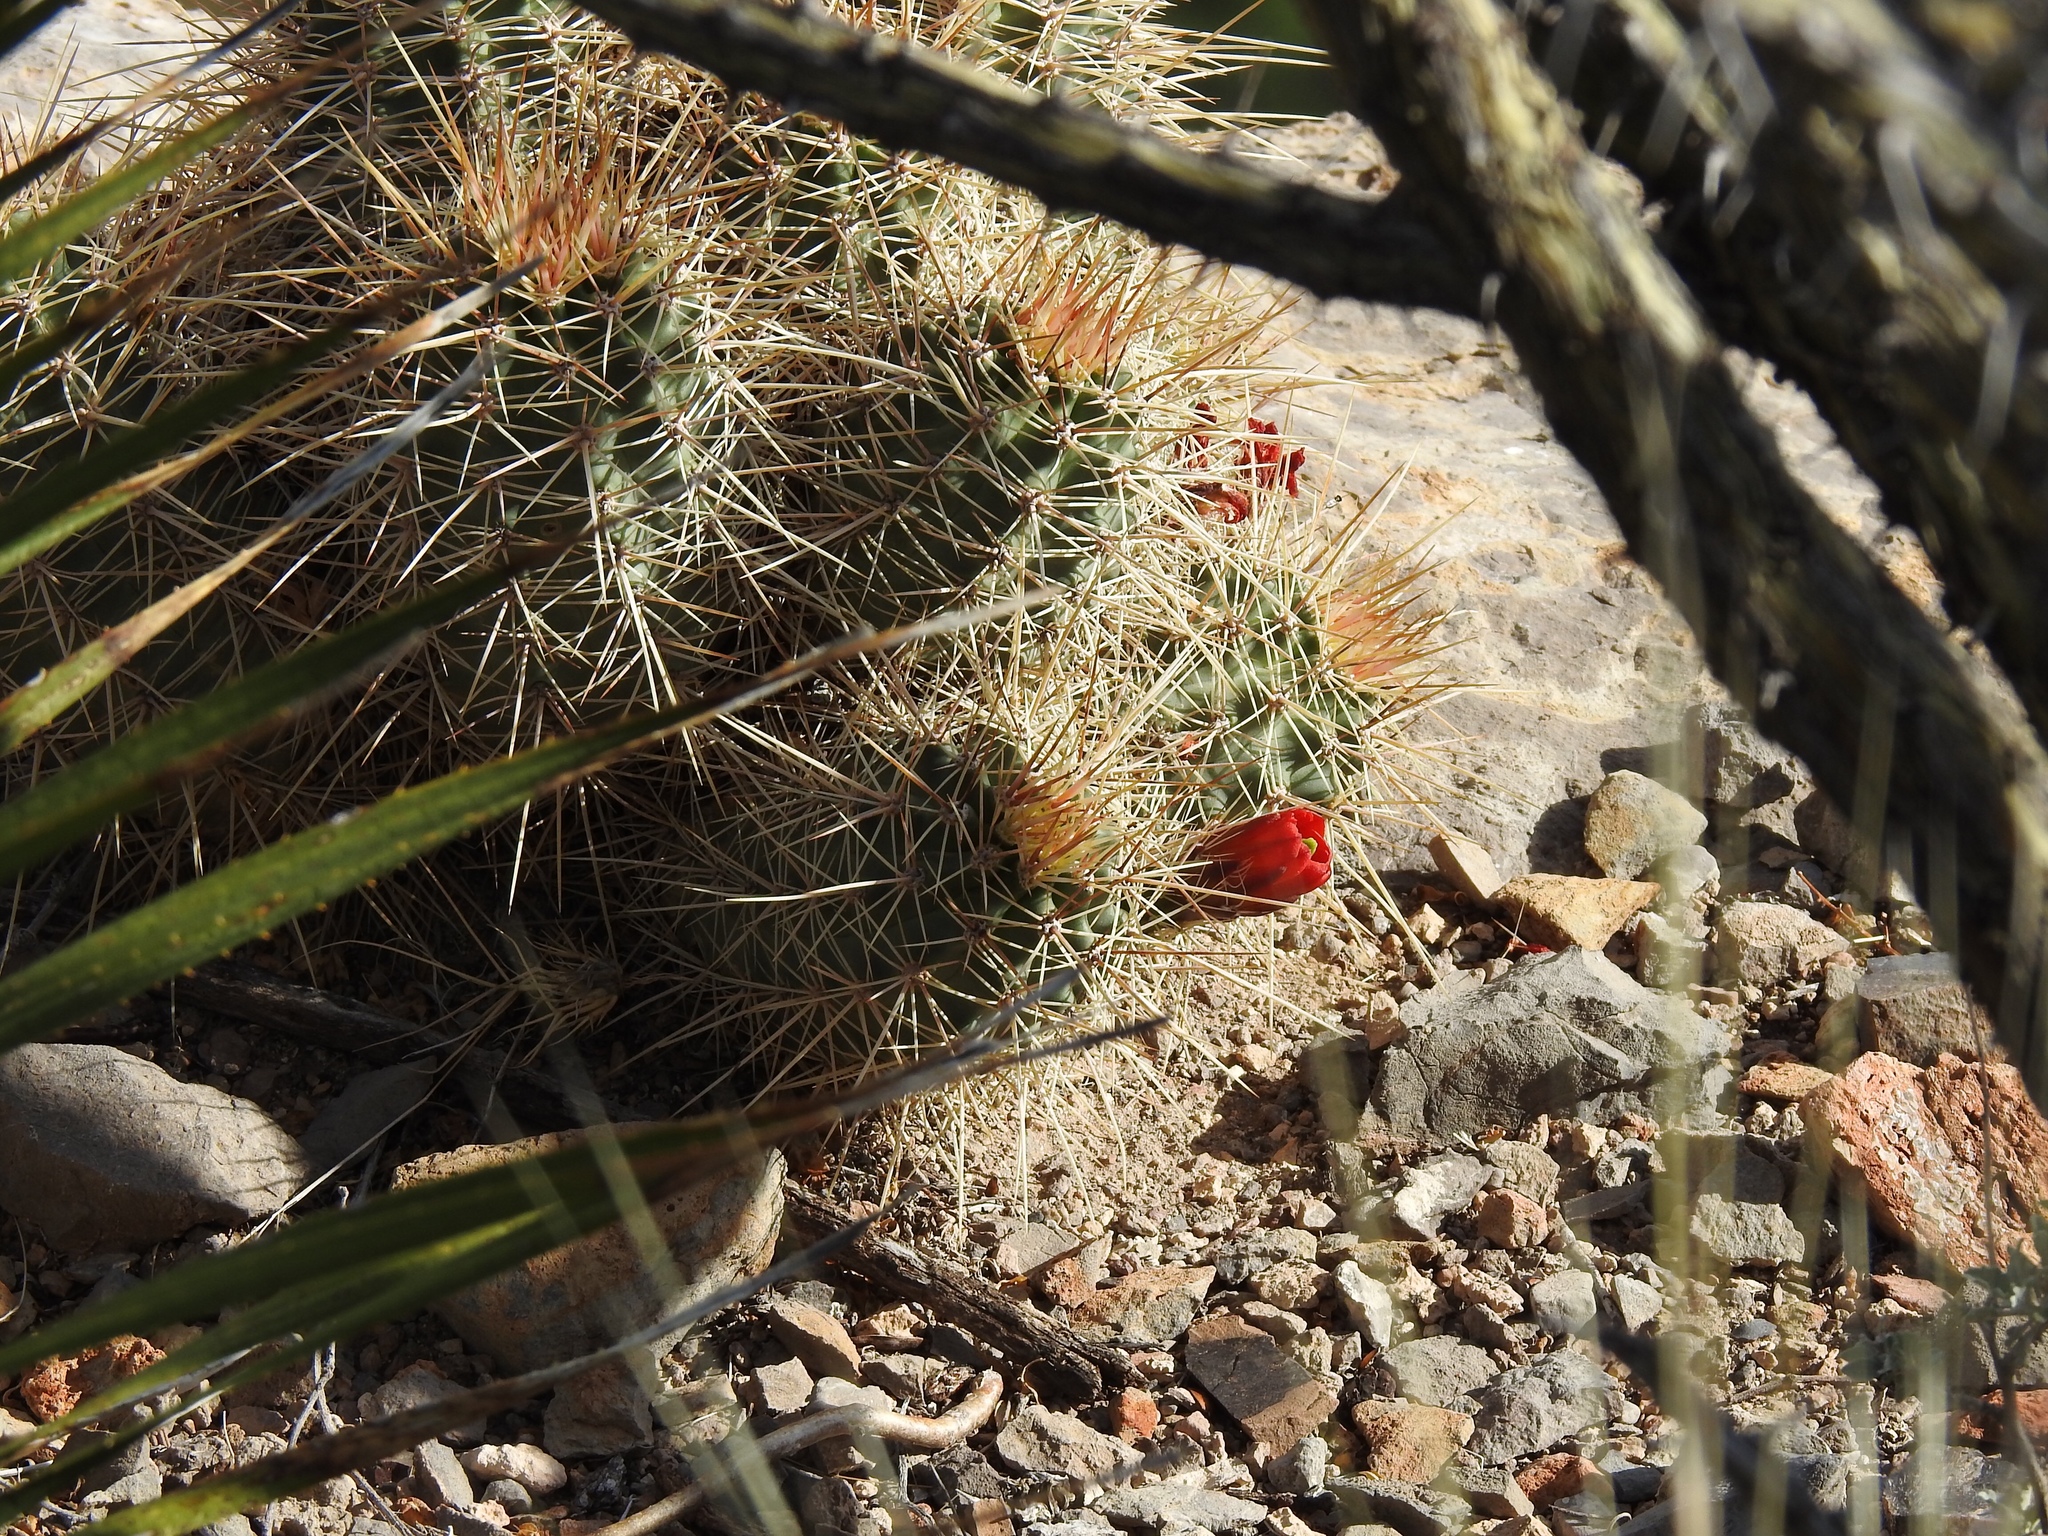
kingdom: Plantae
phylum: Tracheophyta
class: Magnoliopsida
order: Caryophyllales
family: Cactaceae
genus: Echinocereus
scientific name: Echinocereus coccineus
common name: Scarlet hedgehog cactus
